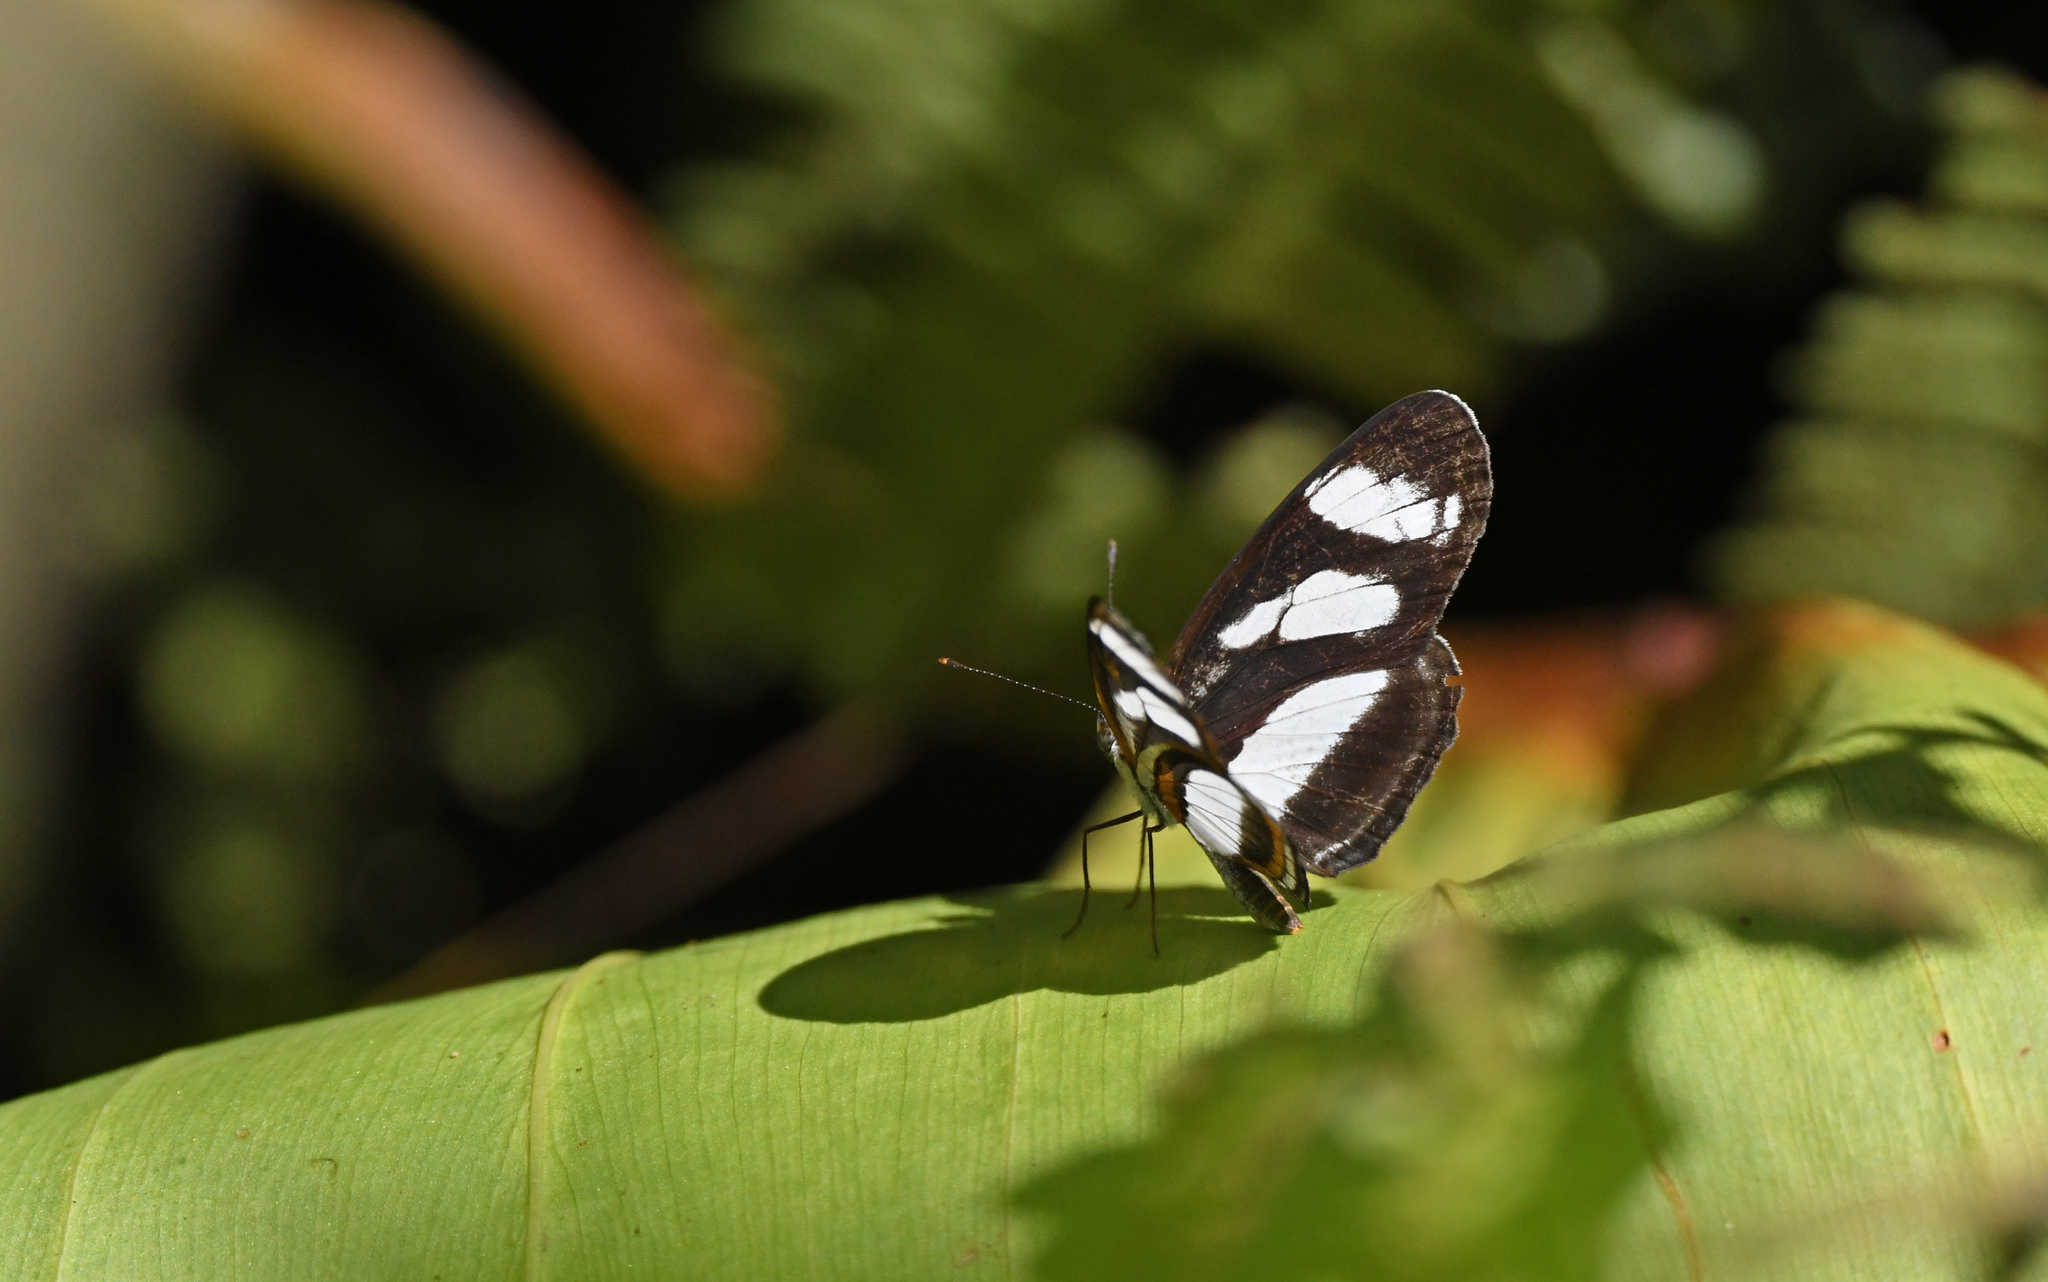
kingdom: Animalia
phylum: Arthropoda
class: Insecta
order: Lepidoptera
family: Nymphalidae
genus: Eresia
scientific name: Eresia nauplius
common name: Nauplius crescent
